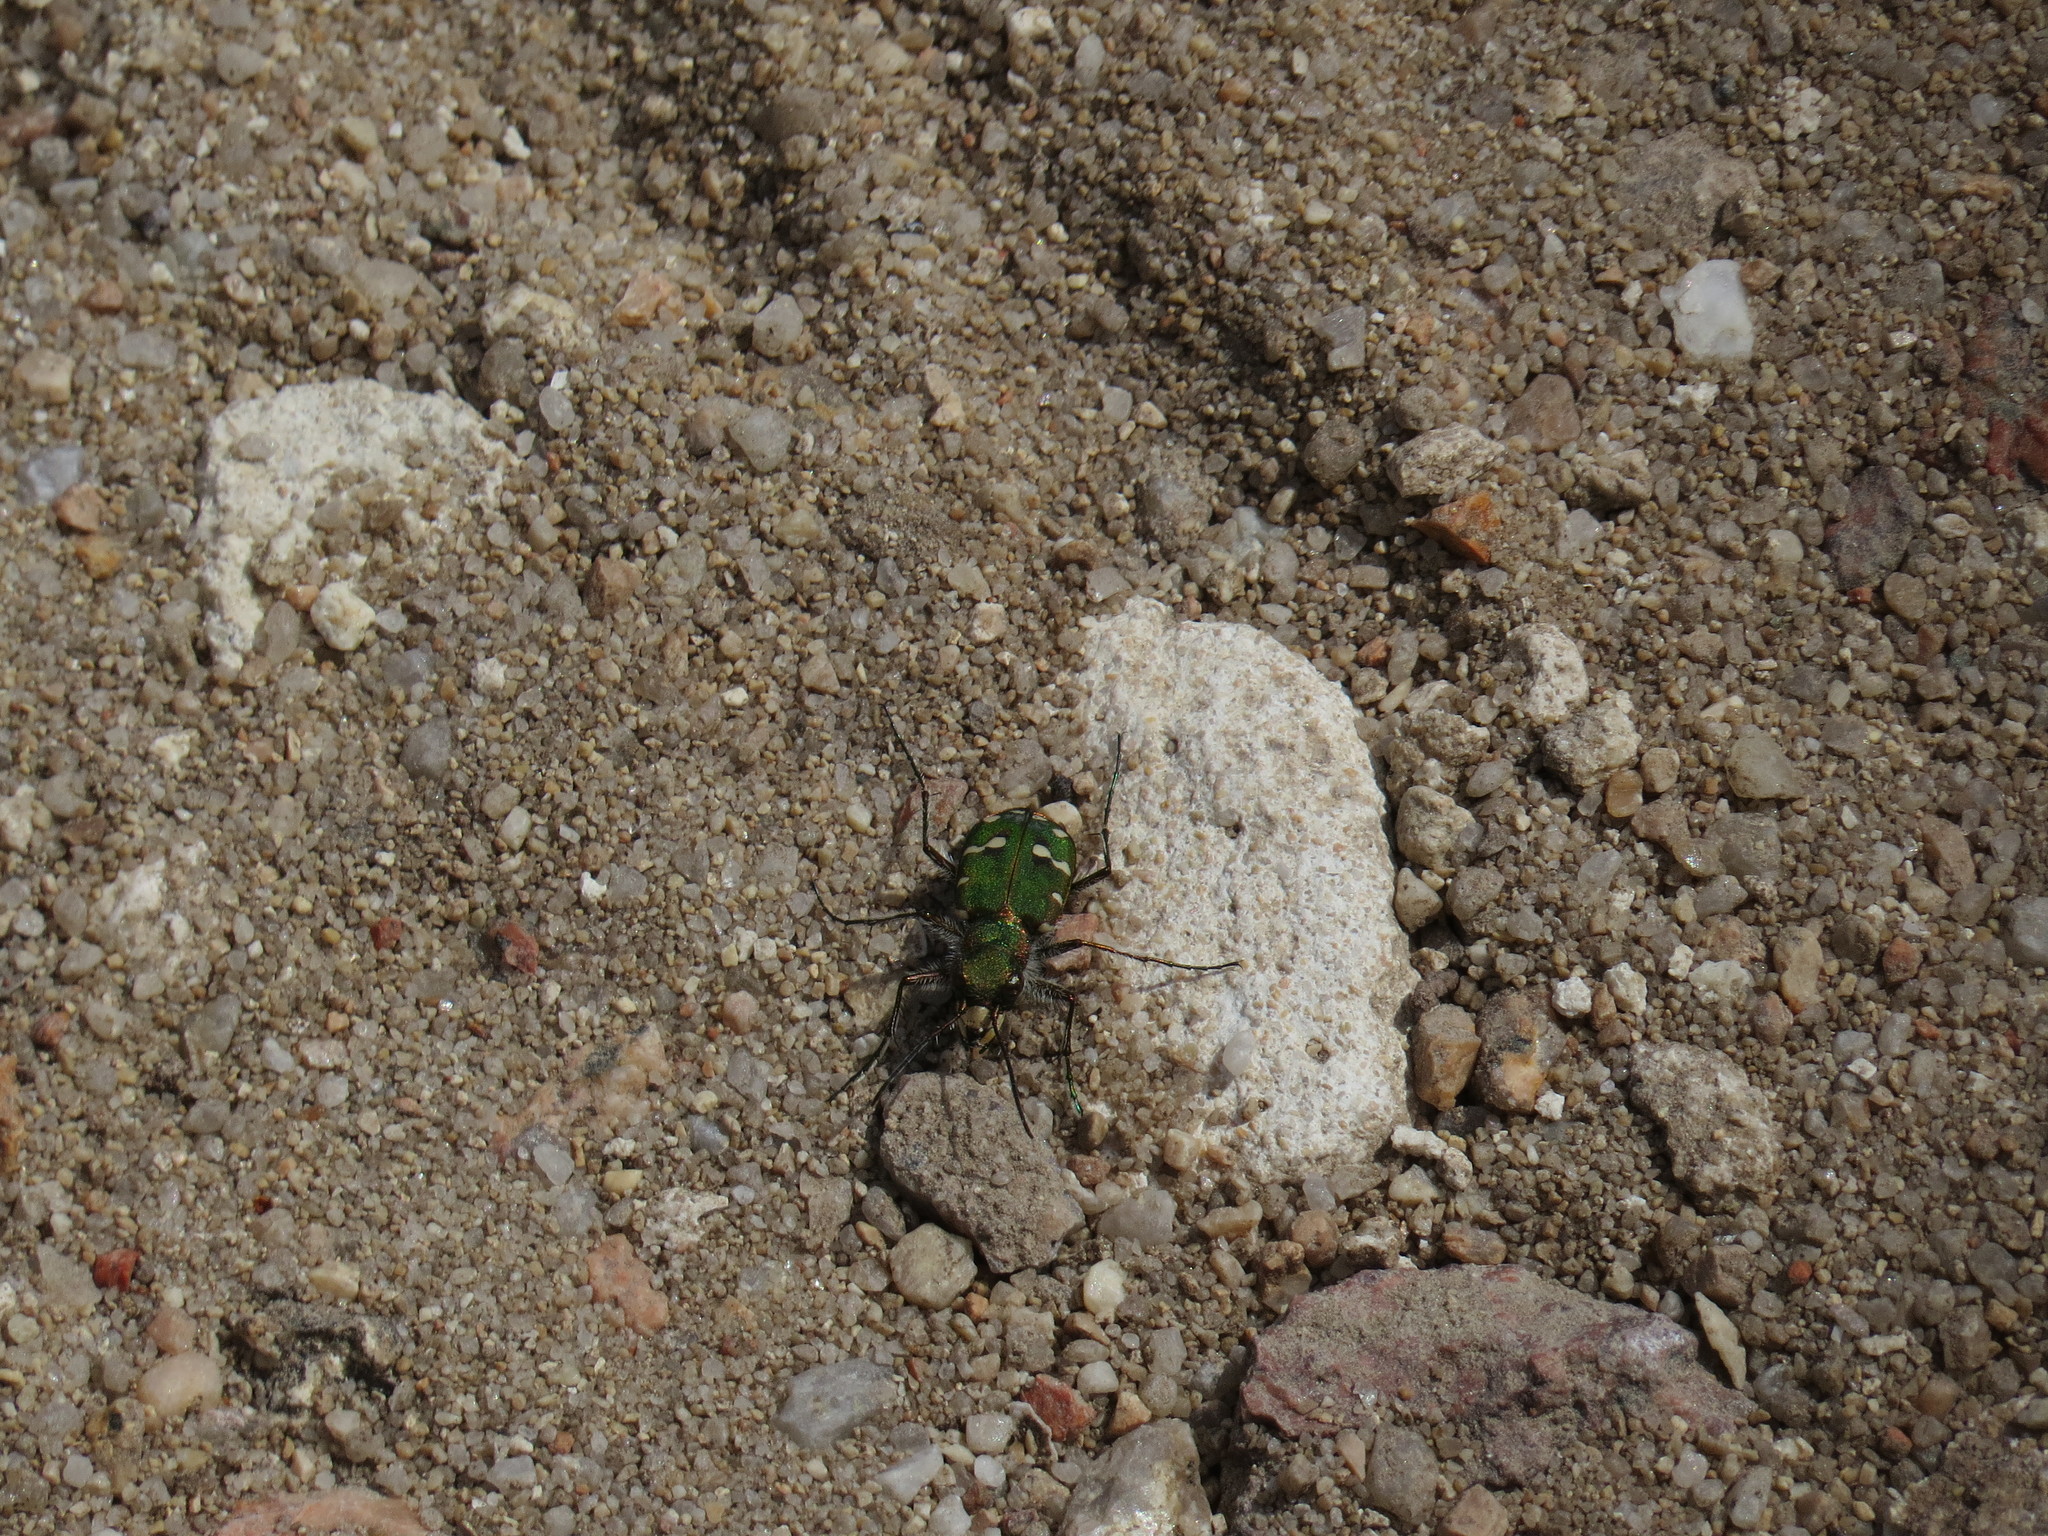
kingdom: Animalia
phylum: Arthropoda
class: Insecta
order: Coleoptera
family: Carabidae
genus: Cicindela
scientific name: Cicindela campestris
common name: Common tiger beetle
